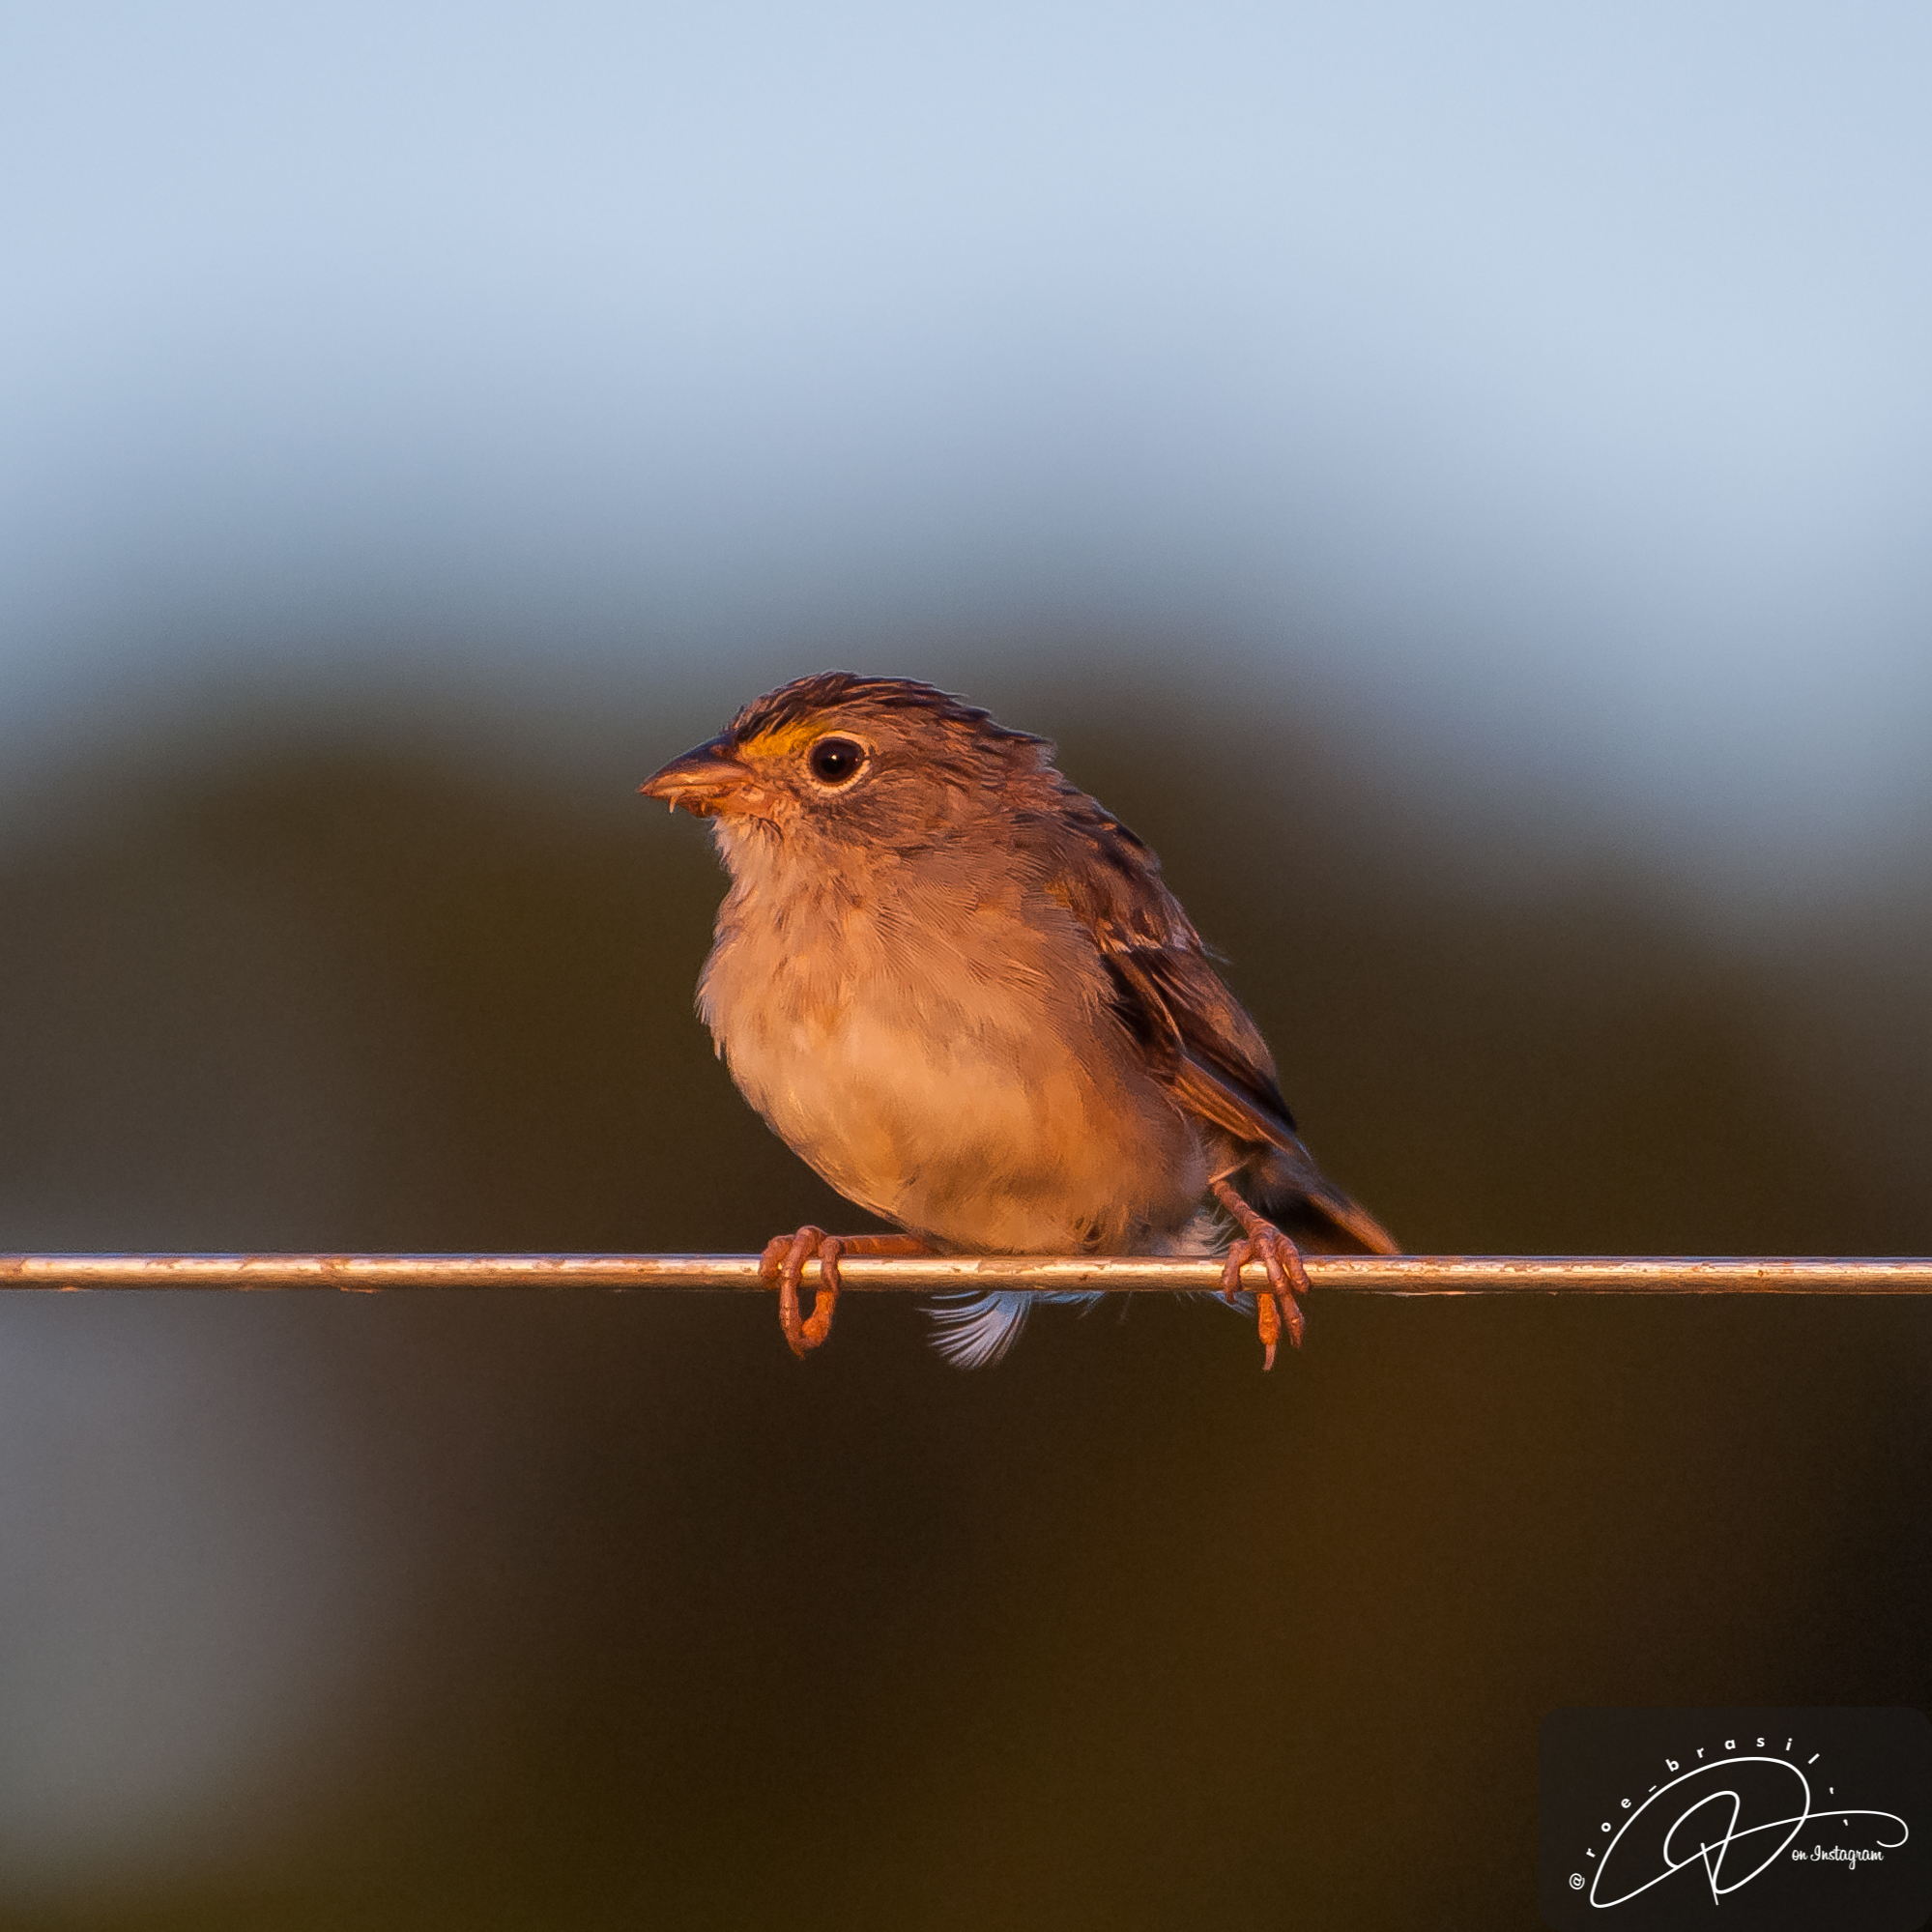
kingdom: Animalia
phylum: Chordata
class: Aves
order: Passeriformes
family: Passerellidae
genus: Ammodramus
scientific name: Ammodramus humeralis
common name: Grassland sparrow
